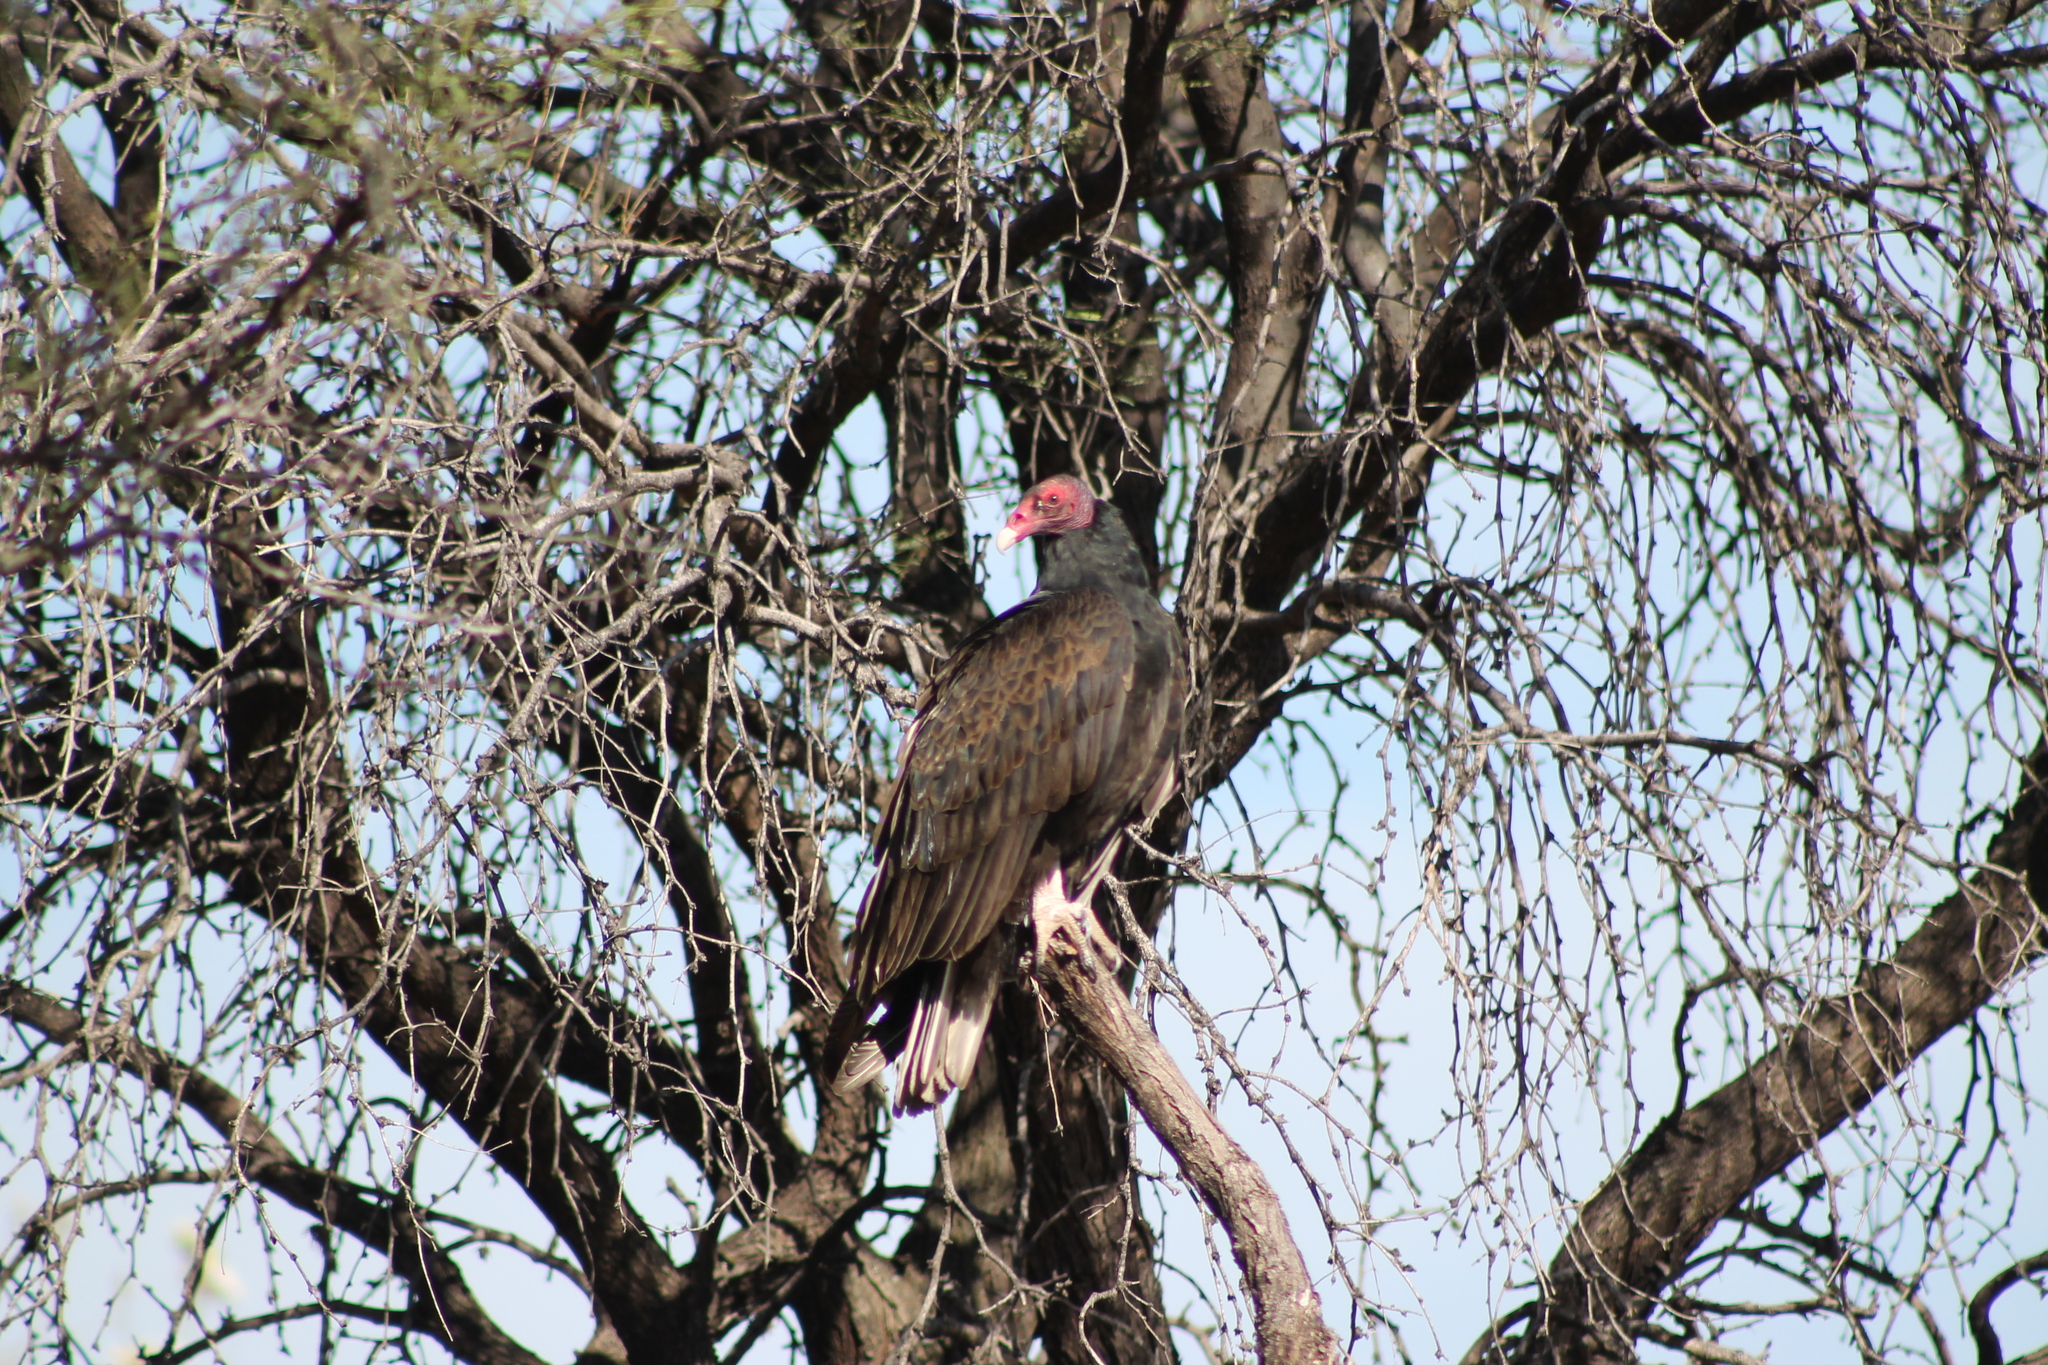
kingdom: Animalia
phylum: Chordata
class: Aves
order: Accipitriformes
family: Cathartidae
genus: Cathartes
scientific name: Cathartes aura
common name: Turkey vulture
